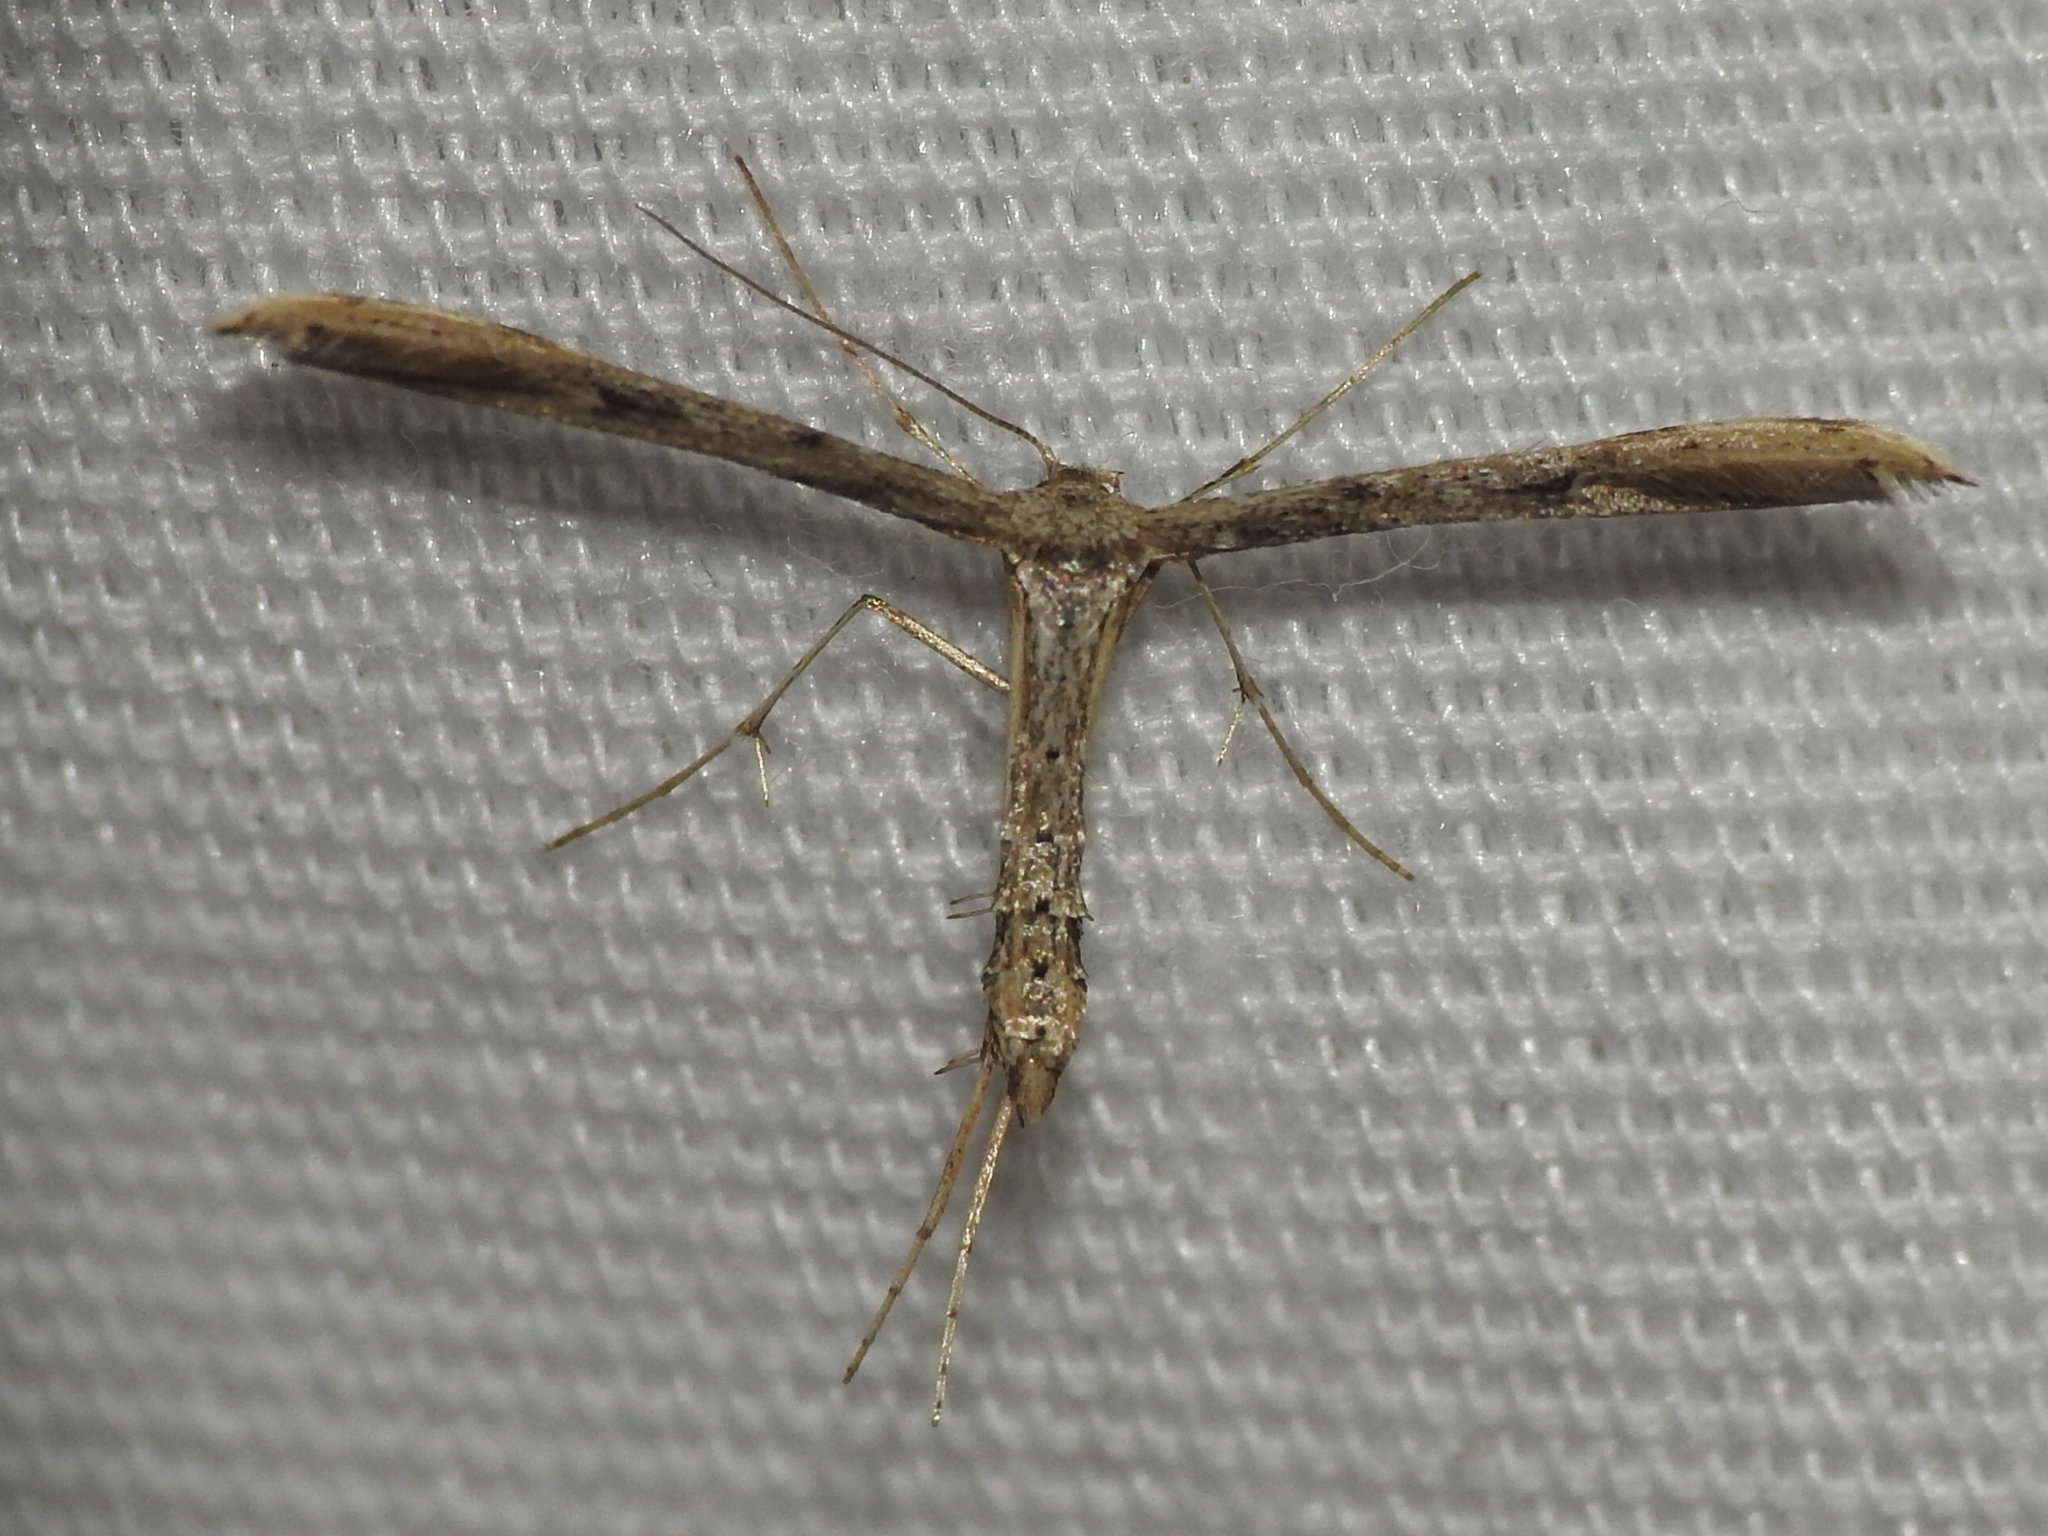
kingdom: Animalia
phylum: Arthropoda
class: Insecta
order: Lepidoptera
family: Pterophoridae
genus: Adaina
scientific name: Adaina ambrosiae
